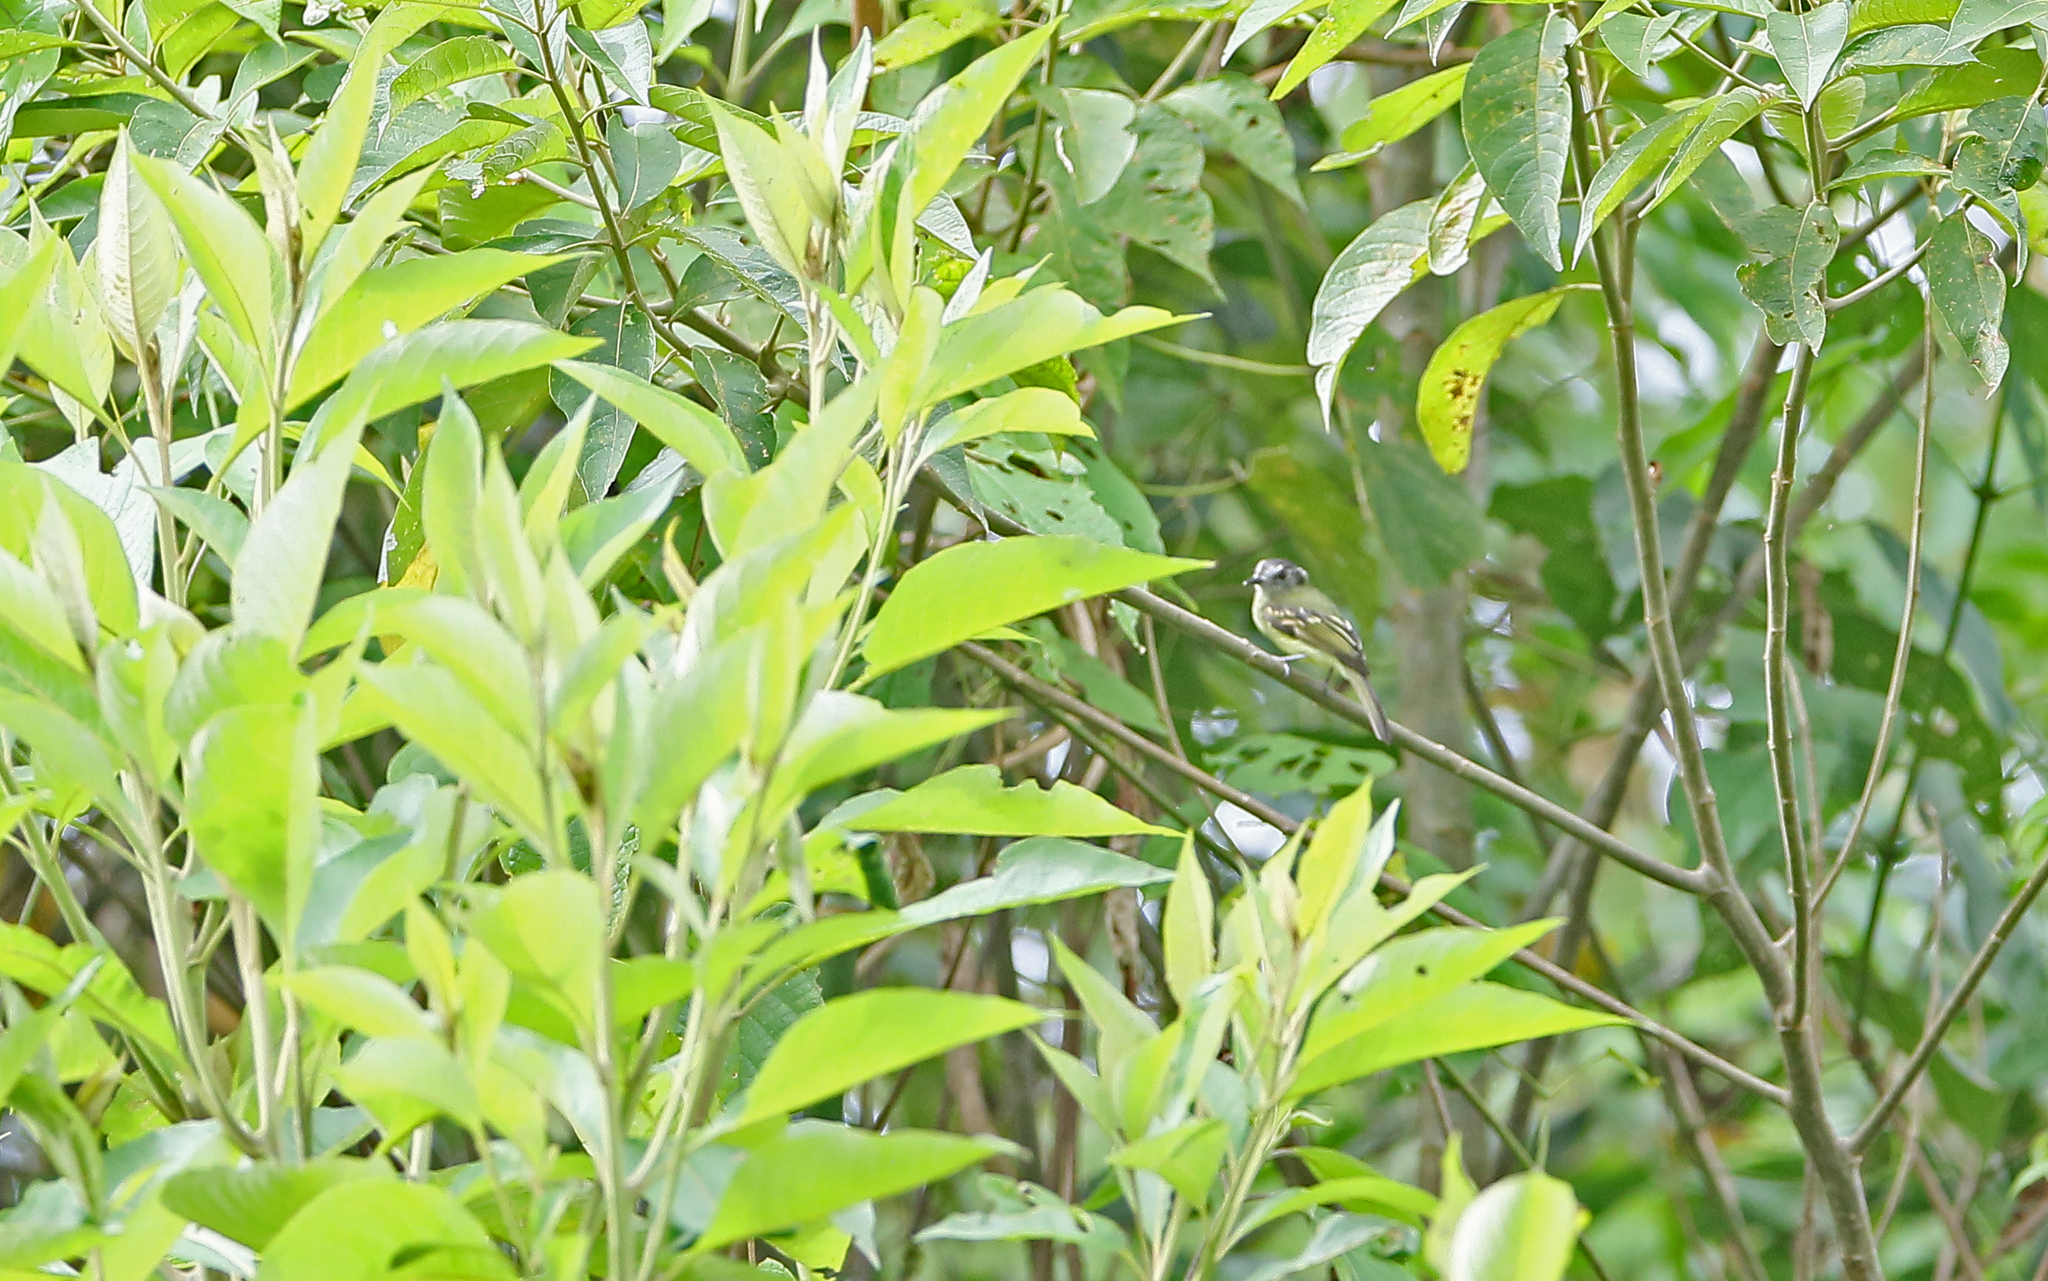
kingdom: Animalia
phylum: Chordata
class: Aves
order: Passeriformes
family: Tyrannidae
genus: Leptopogon
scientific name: Leptopogon superciliaris
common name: Slaty-capped flycatcher
